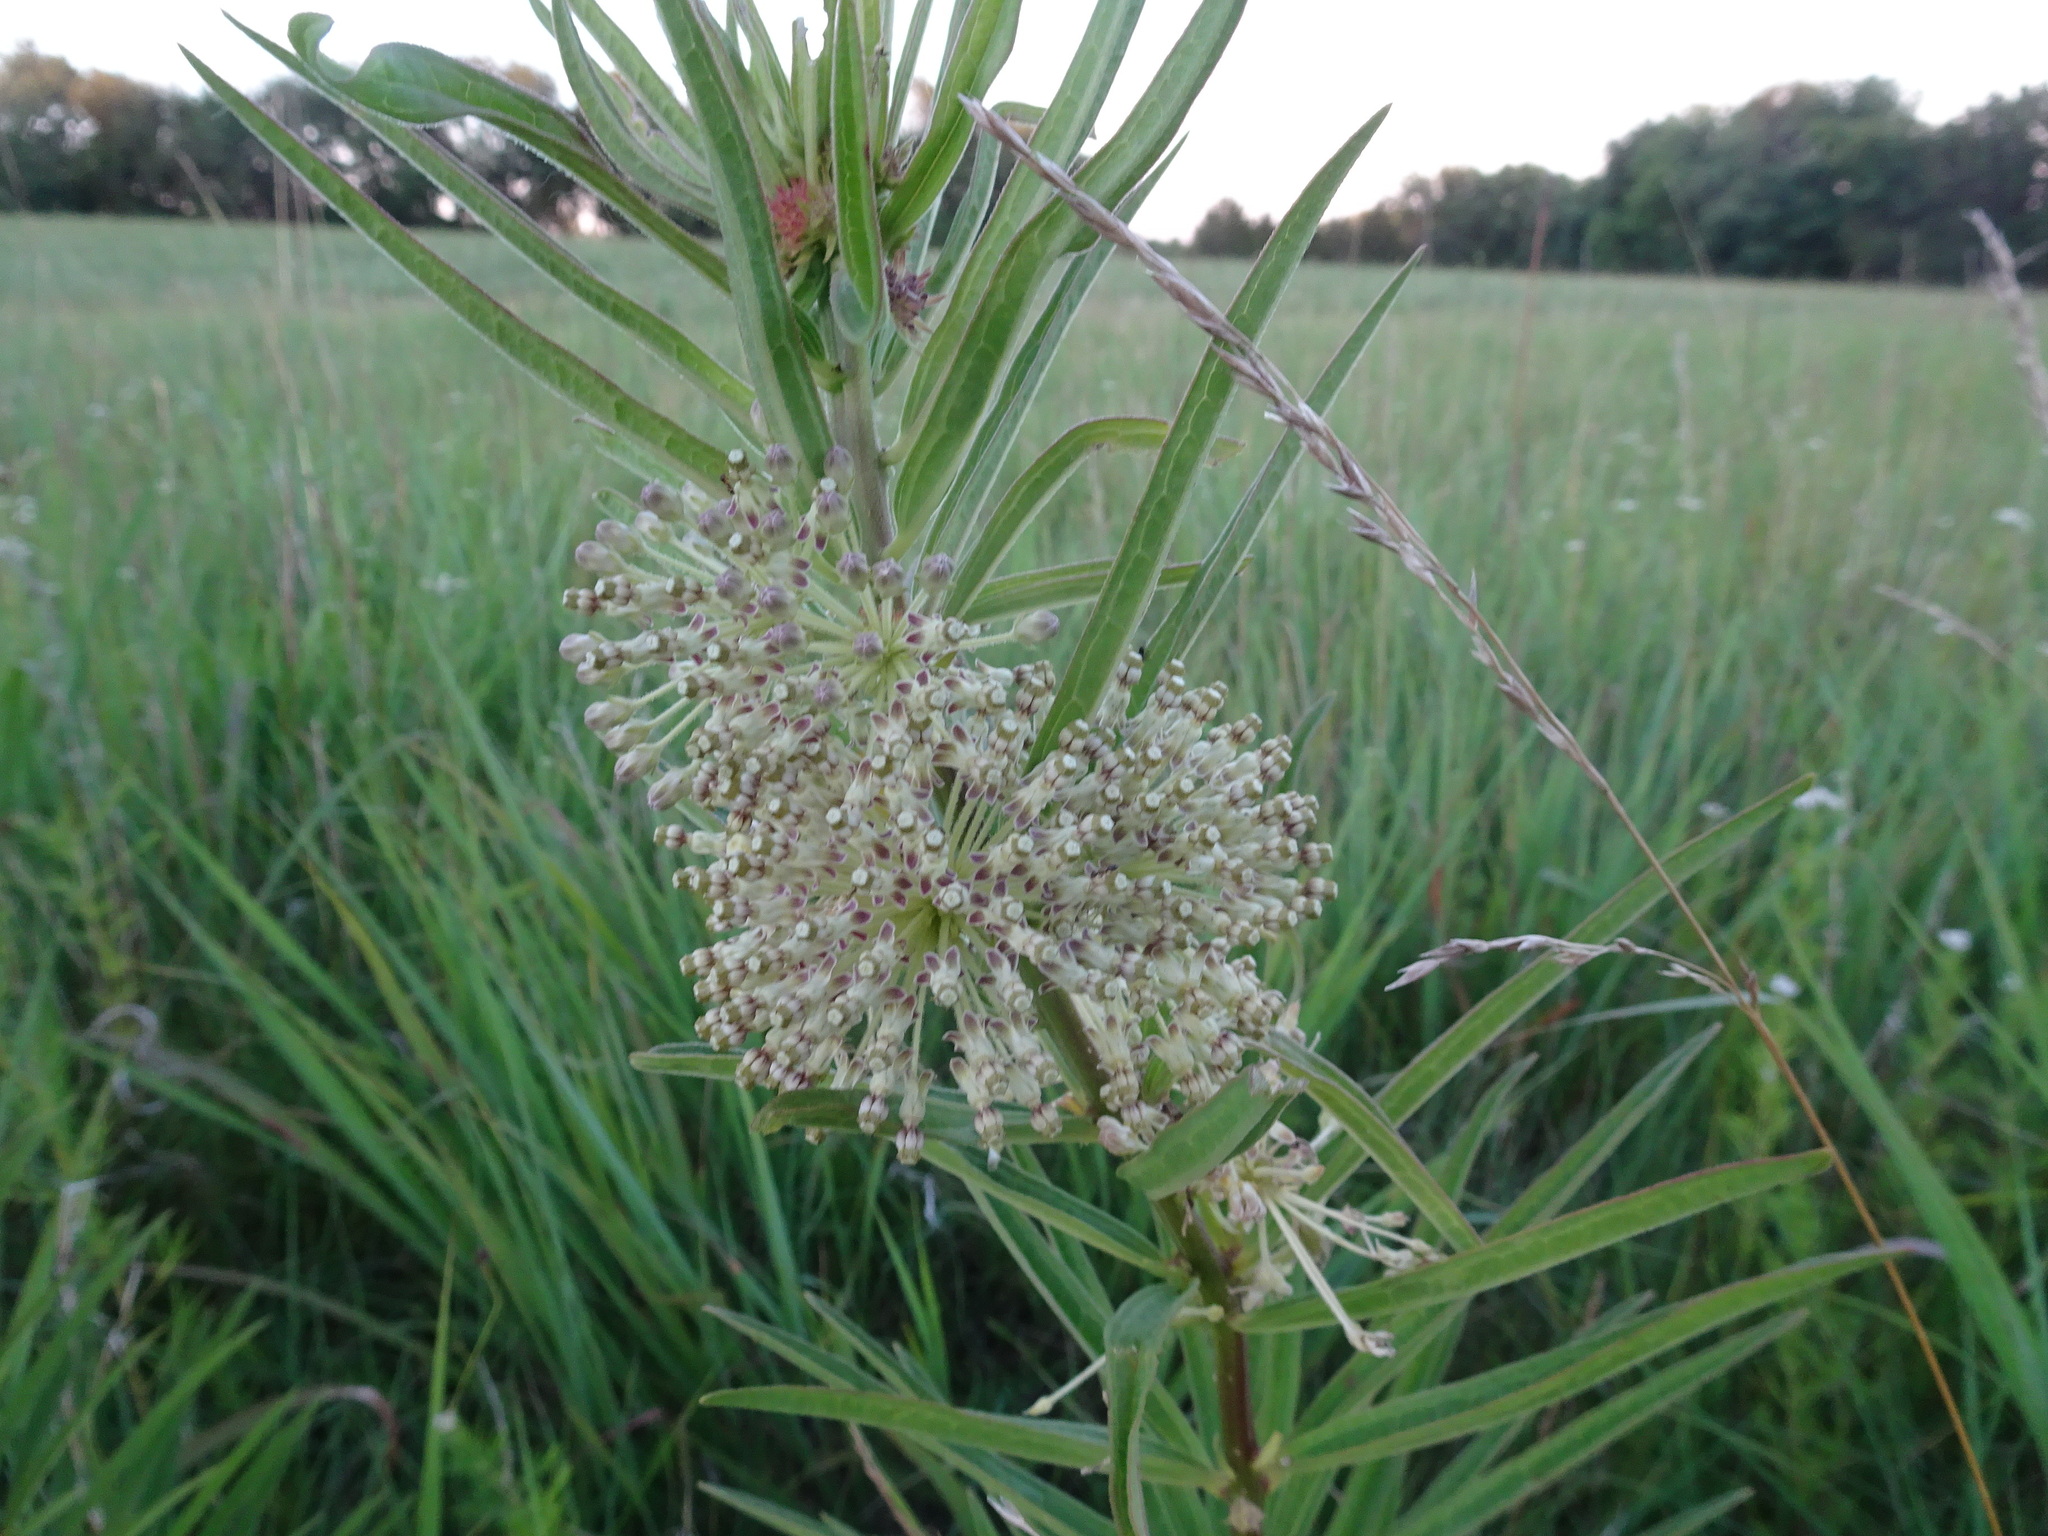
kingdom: Plantae
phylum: Tracheophyta
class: Magnoliopsida
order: Gentianales
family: Apocynaceae
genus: Asclepias
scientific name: Asclepias hirtella
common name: Prairie milkweed
